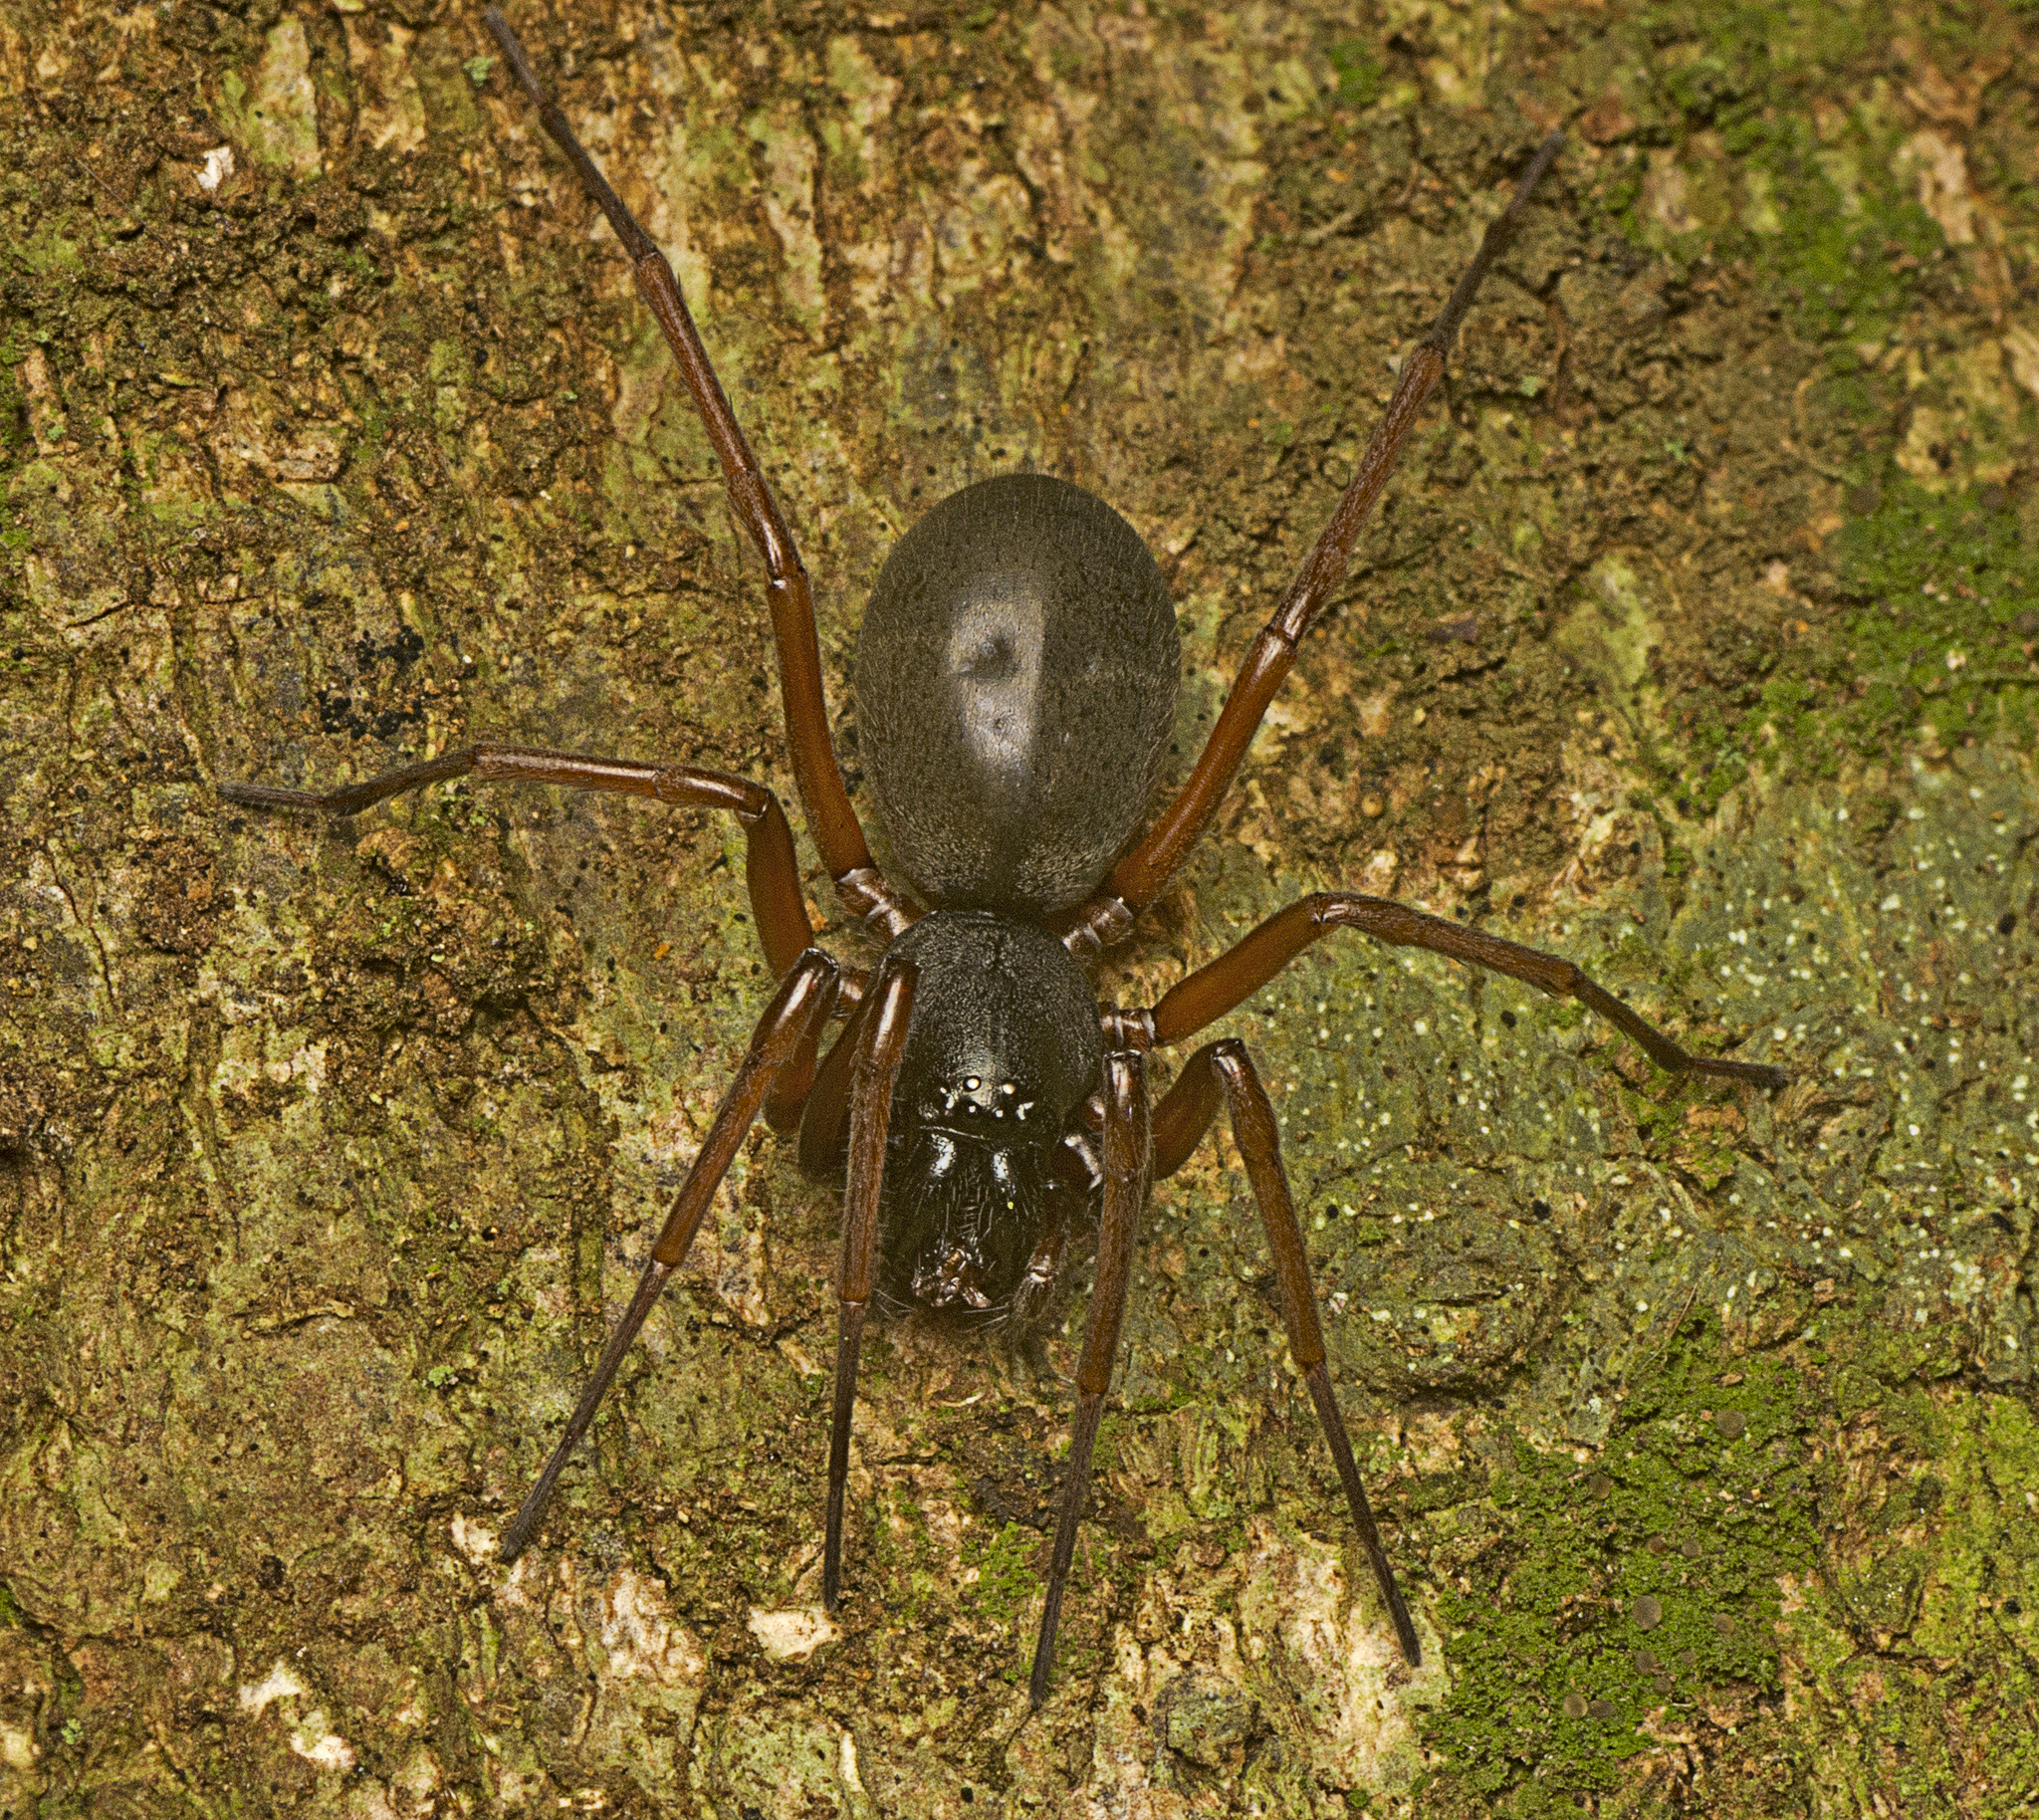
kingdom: Animalia
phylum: Arthropoda
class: Arachnida
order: Araneae
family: Lamponidae
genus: Centrothele
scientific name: Centrothele mutica
